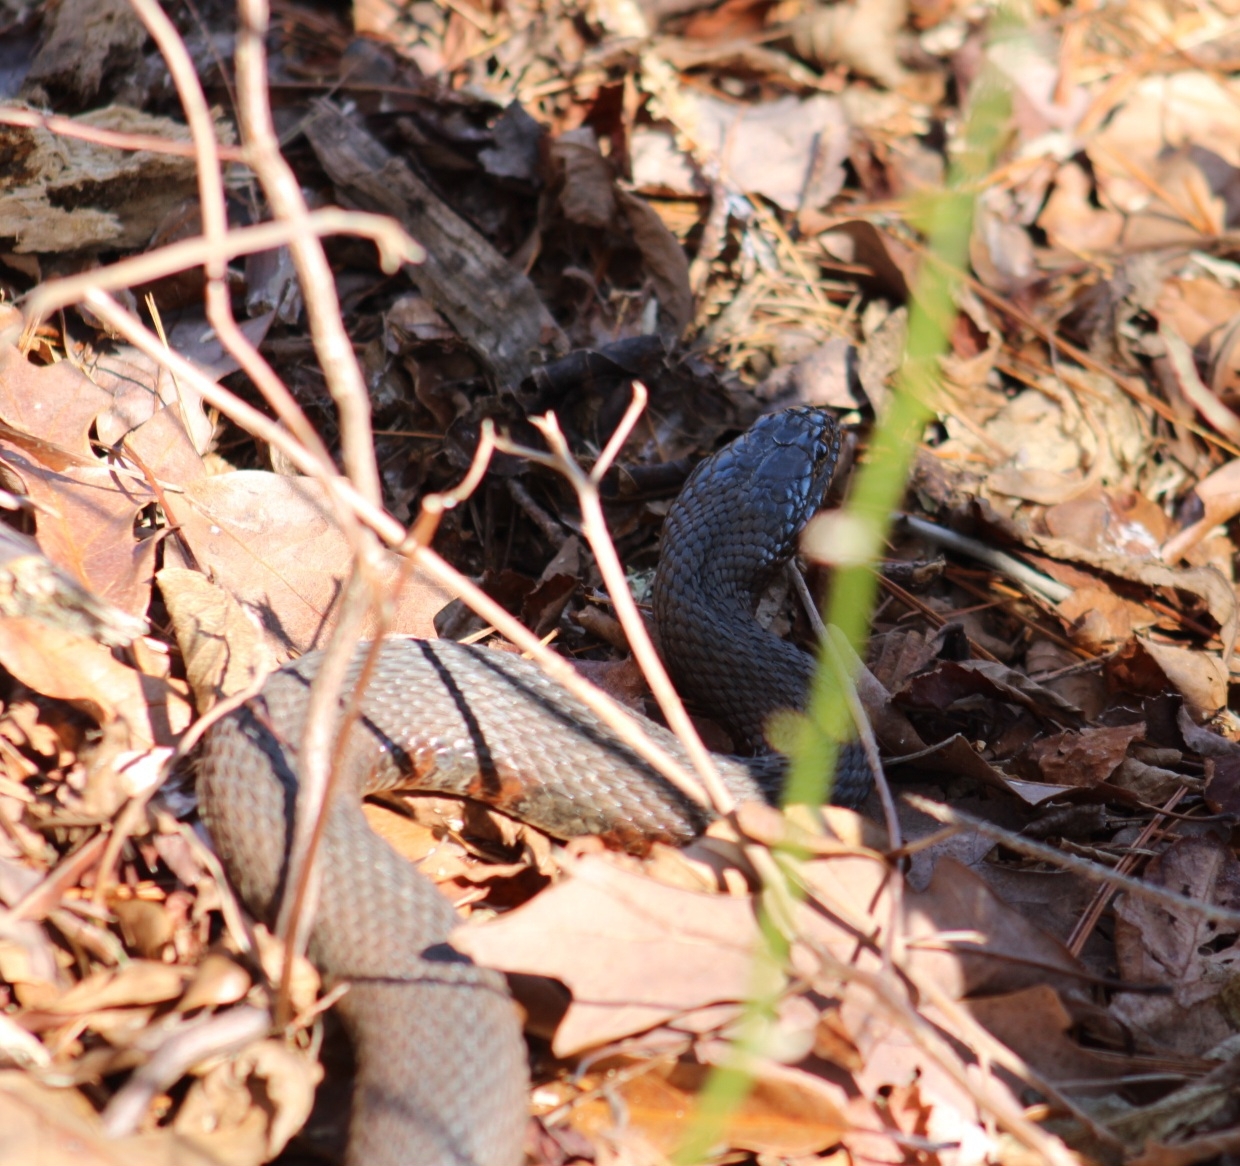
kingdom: Animalia
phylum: Chordata
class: Squamata
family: Colubridae
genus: Nerodia
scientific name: Nerodia sipedon
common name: Northern water snake
